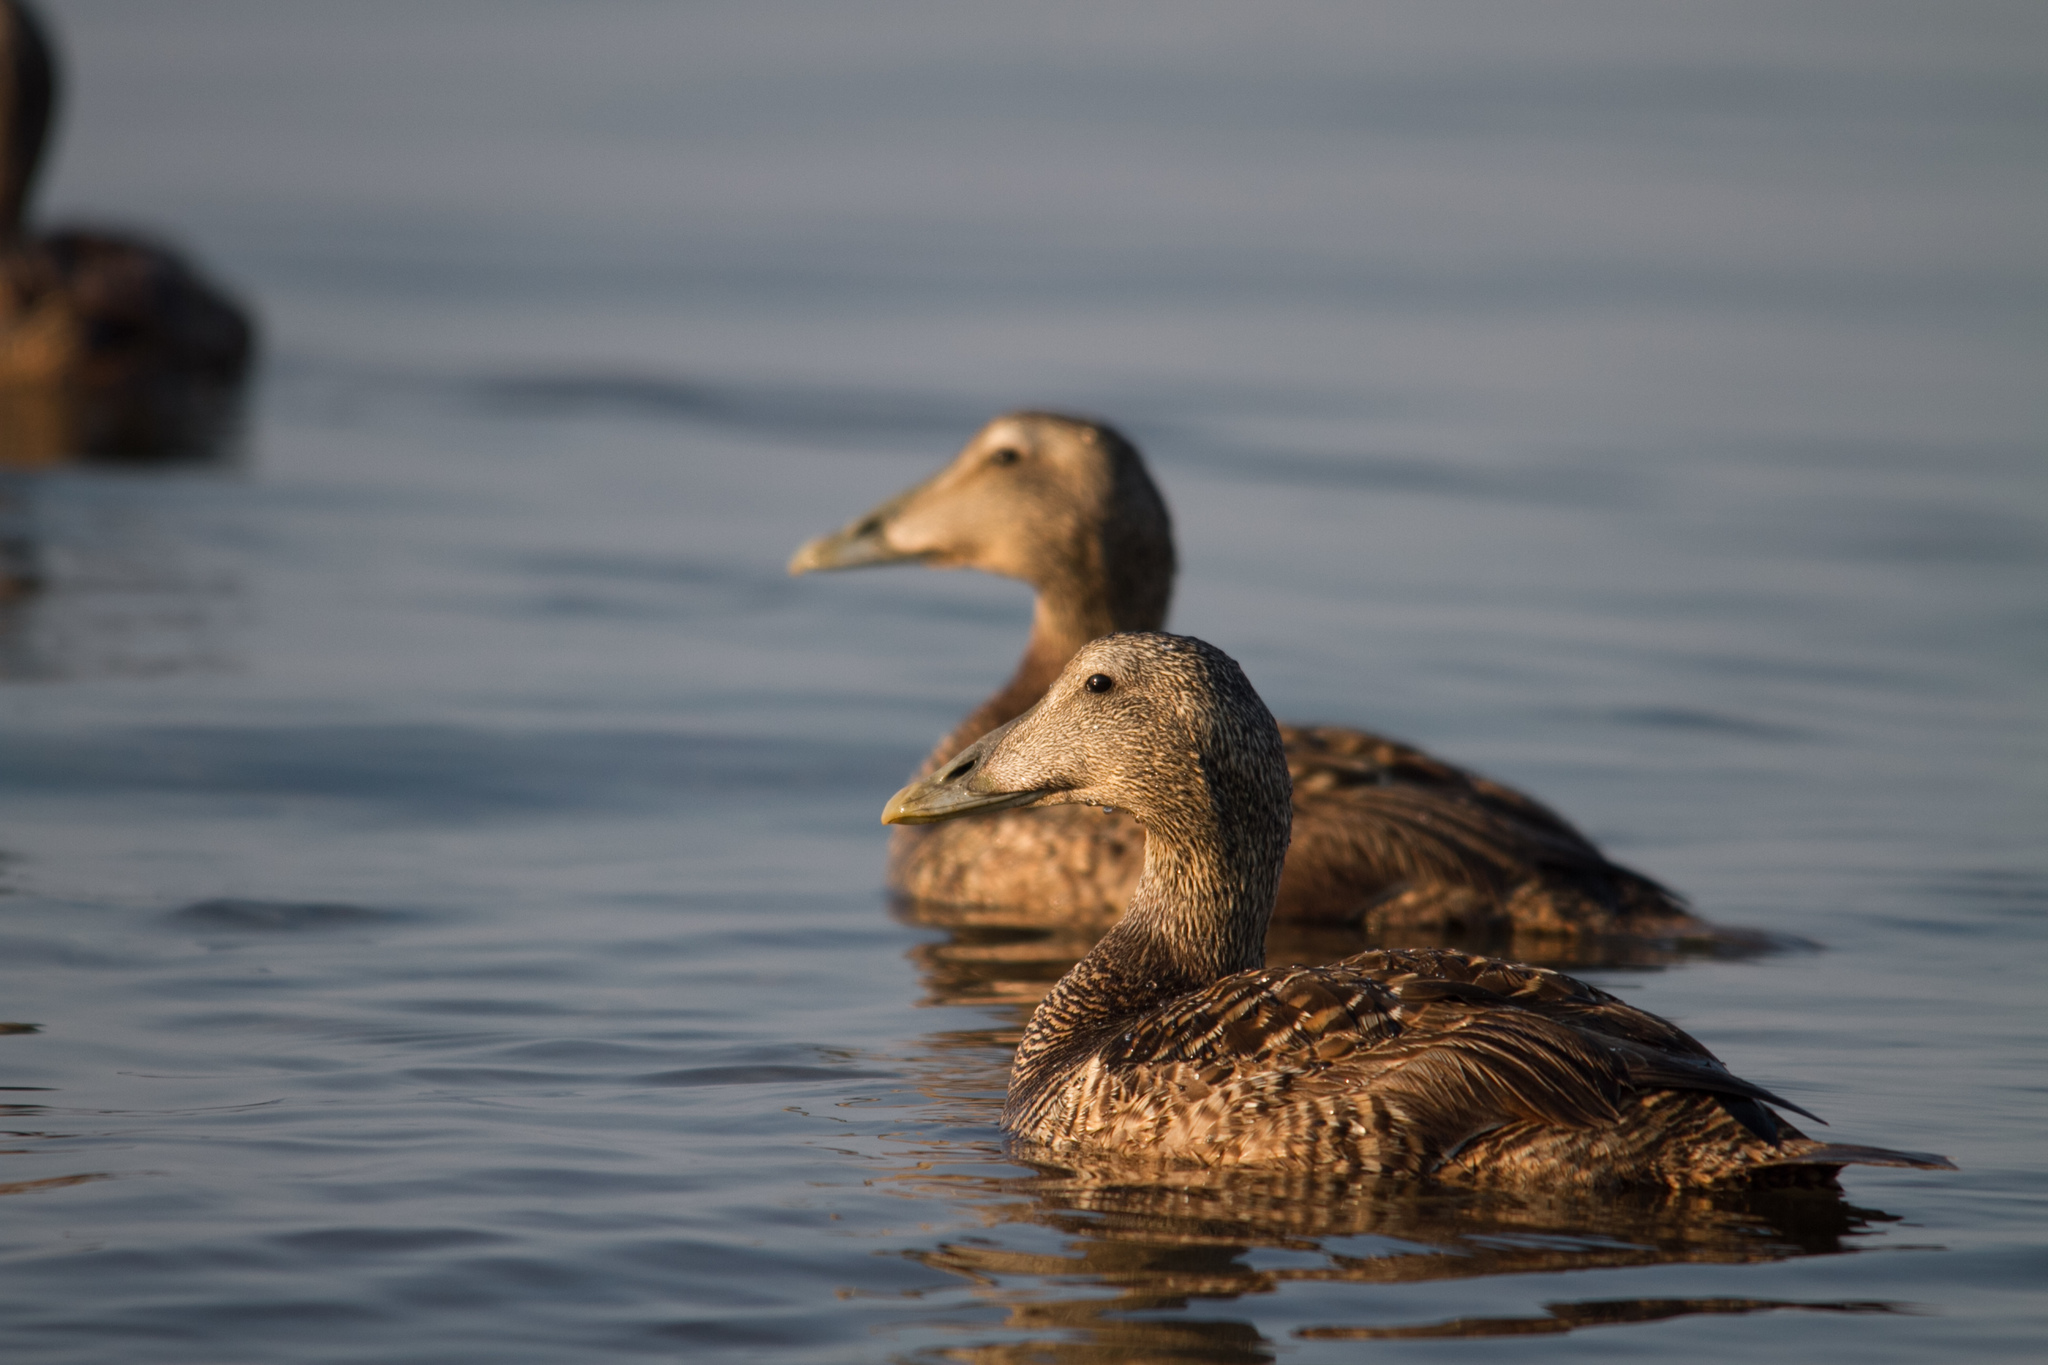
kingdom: Animalia
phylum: Chordata
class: Aves
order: Anseriformes
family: Anatidae
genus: Somateria
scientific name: Somateria mollissima
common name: Common eider
